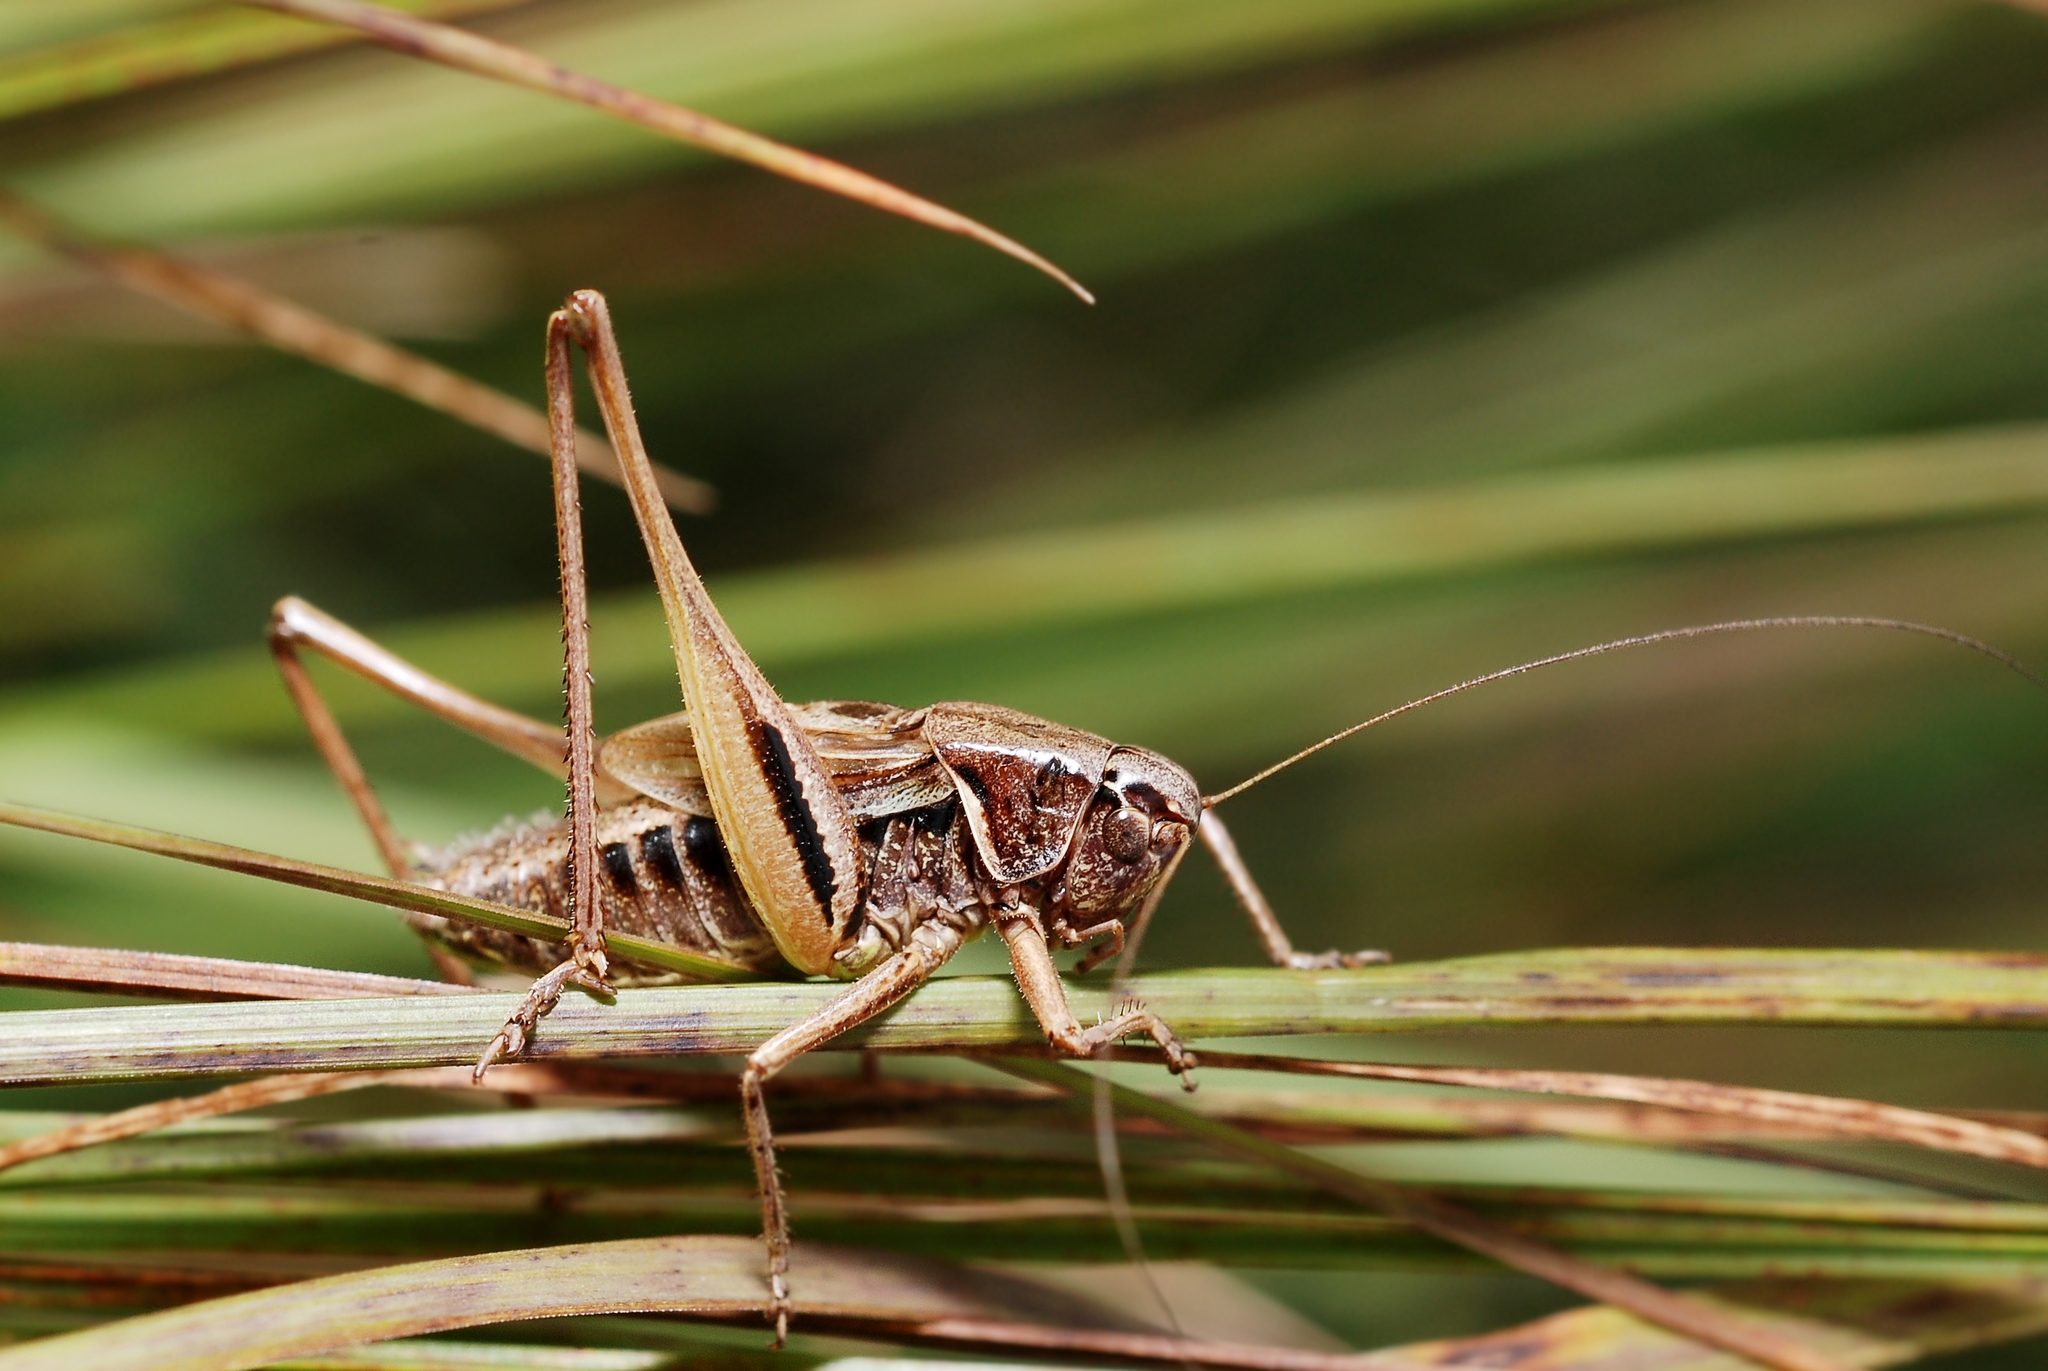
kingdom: Animalia
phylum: Arthropoda
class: Insecta
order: Orthoptera
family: Tettigoniidae
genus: Metrioptera
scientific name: Metrioptera brachyptera
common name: Bog bush-cricket
